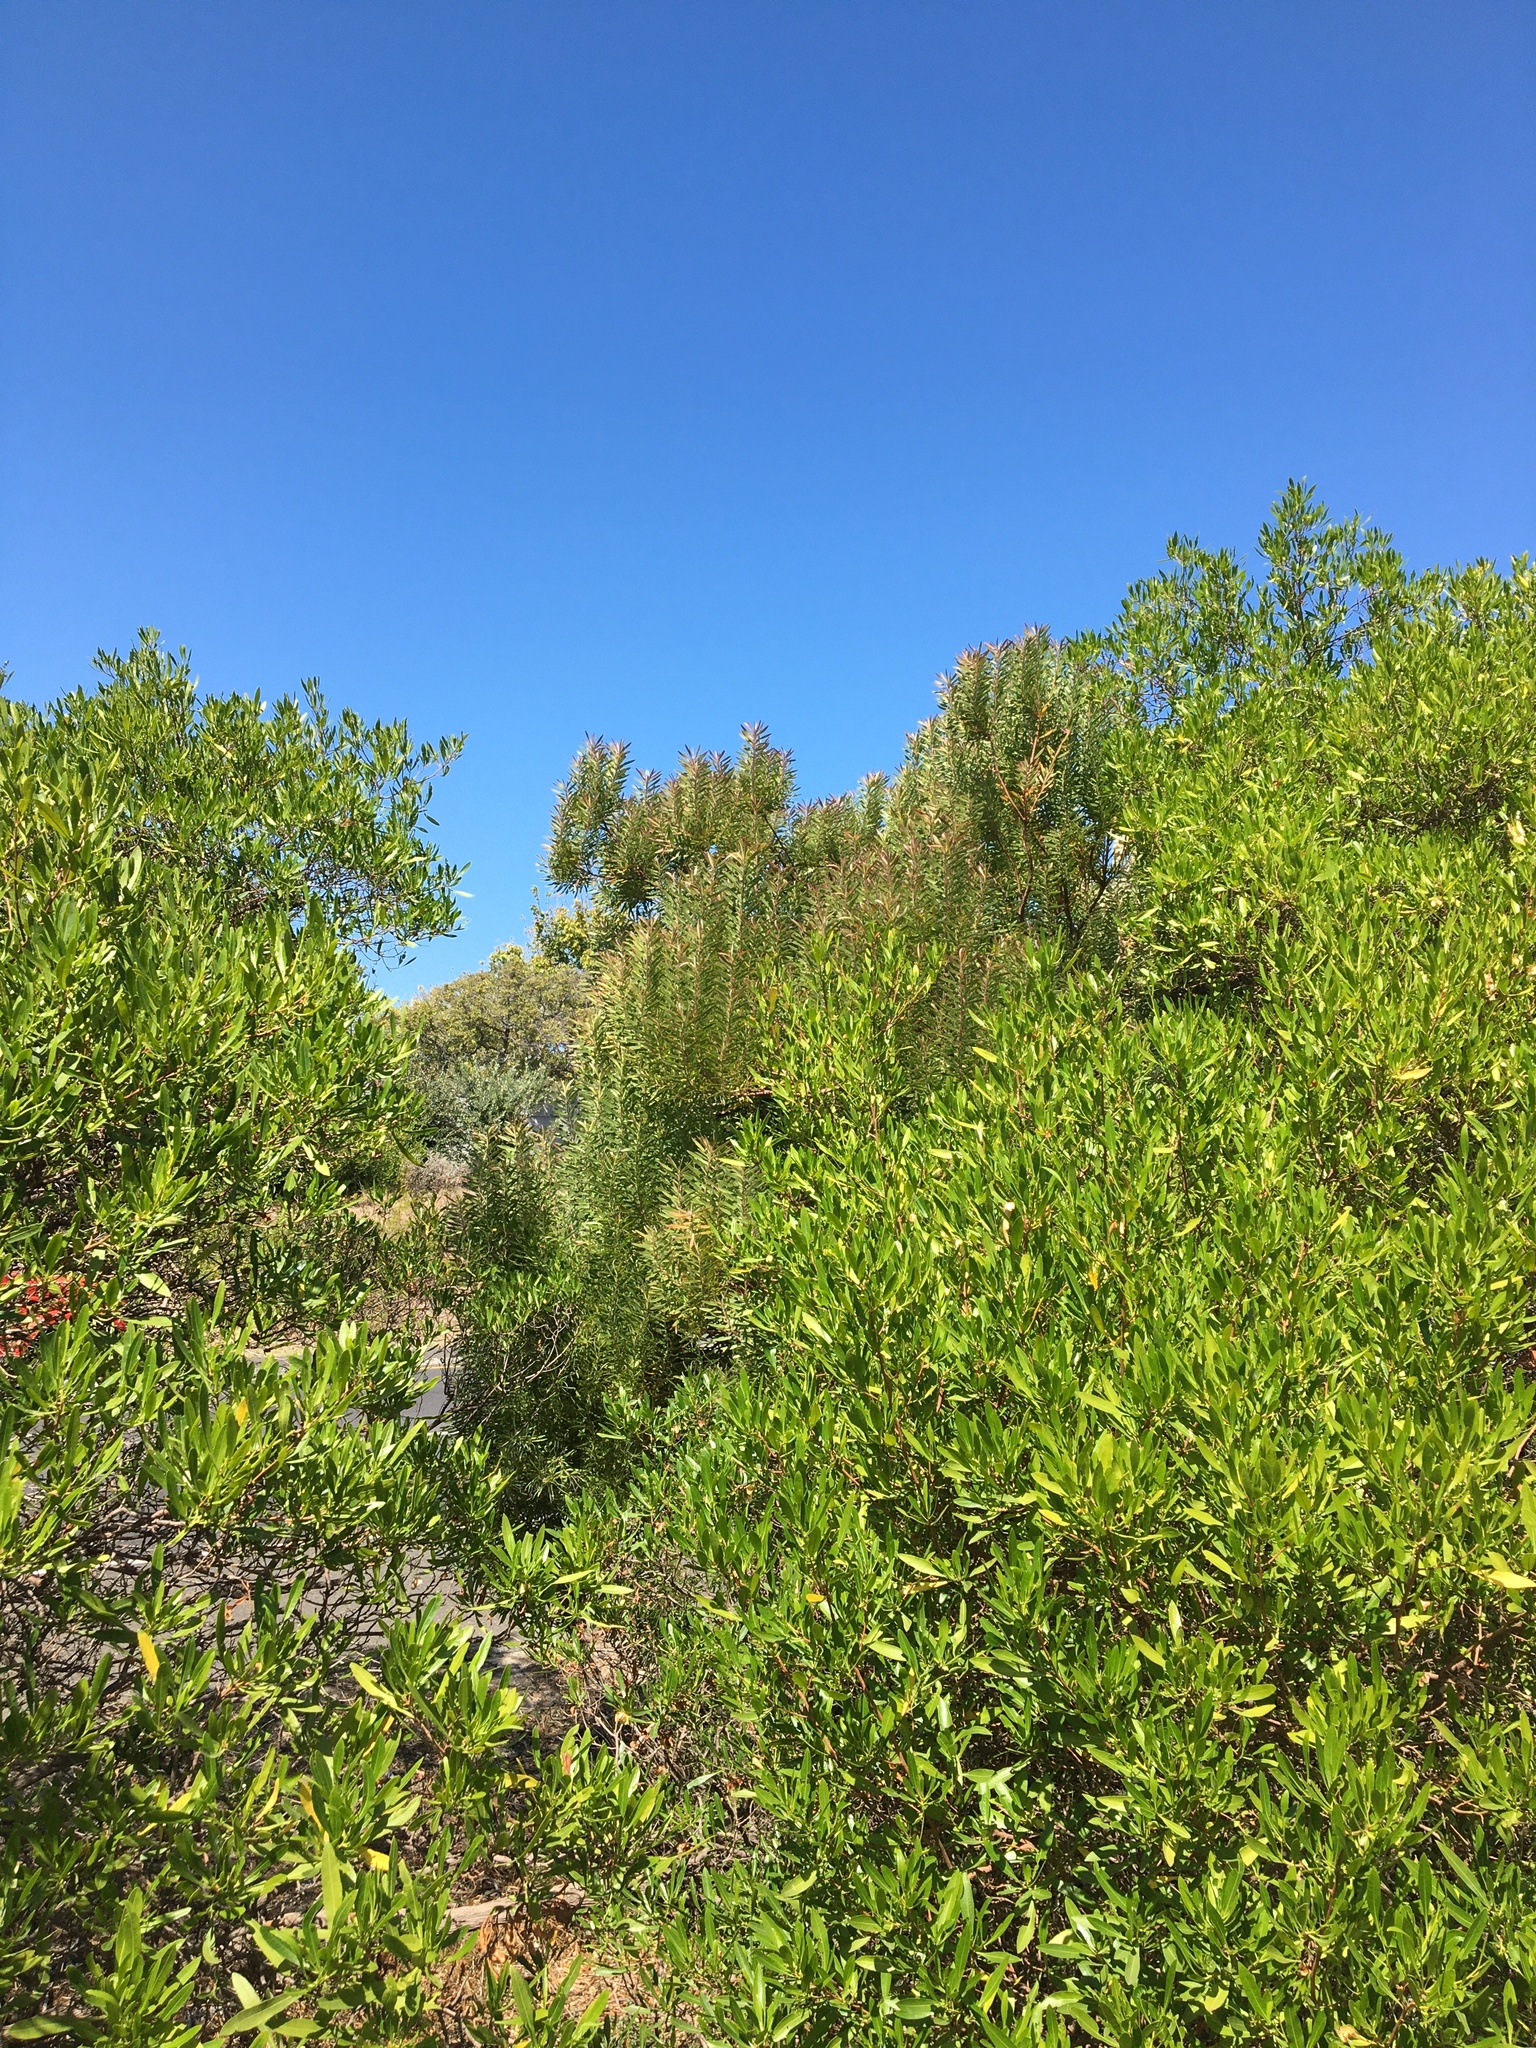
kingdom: Plantae
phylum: Tracheophyta
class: Magnoliopsida
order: Proteales
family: Proteaceae
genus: Leucadendron
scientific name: Leucadendron coniferum
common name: Dune conebush
